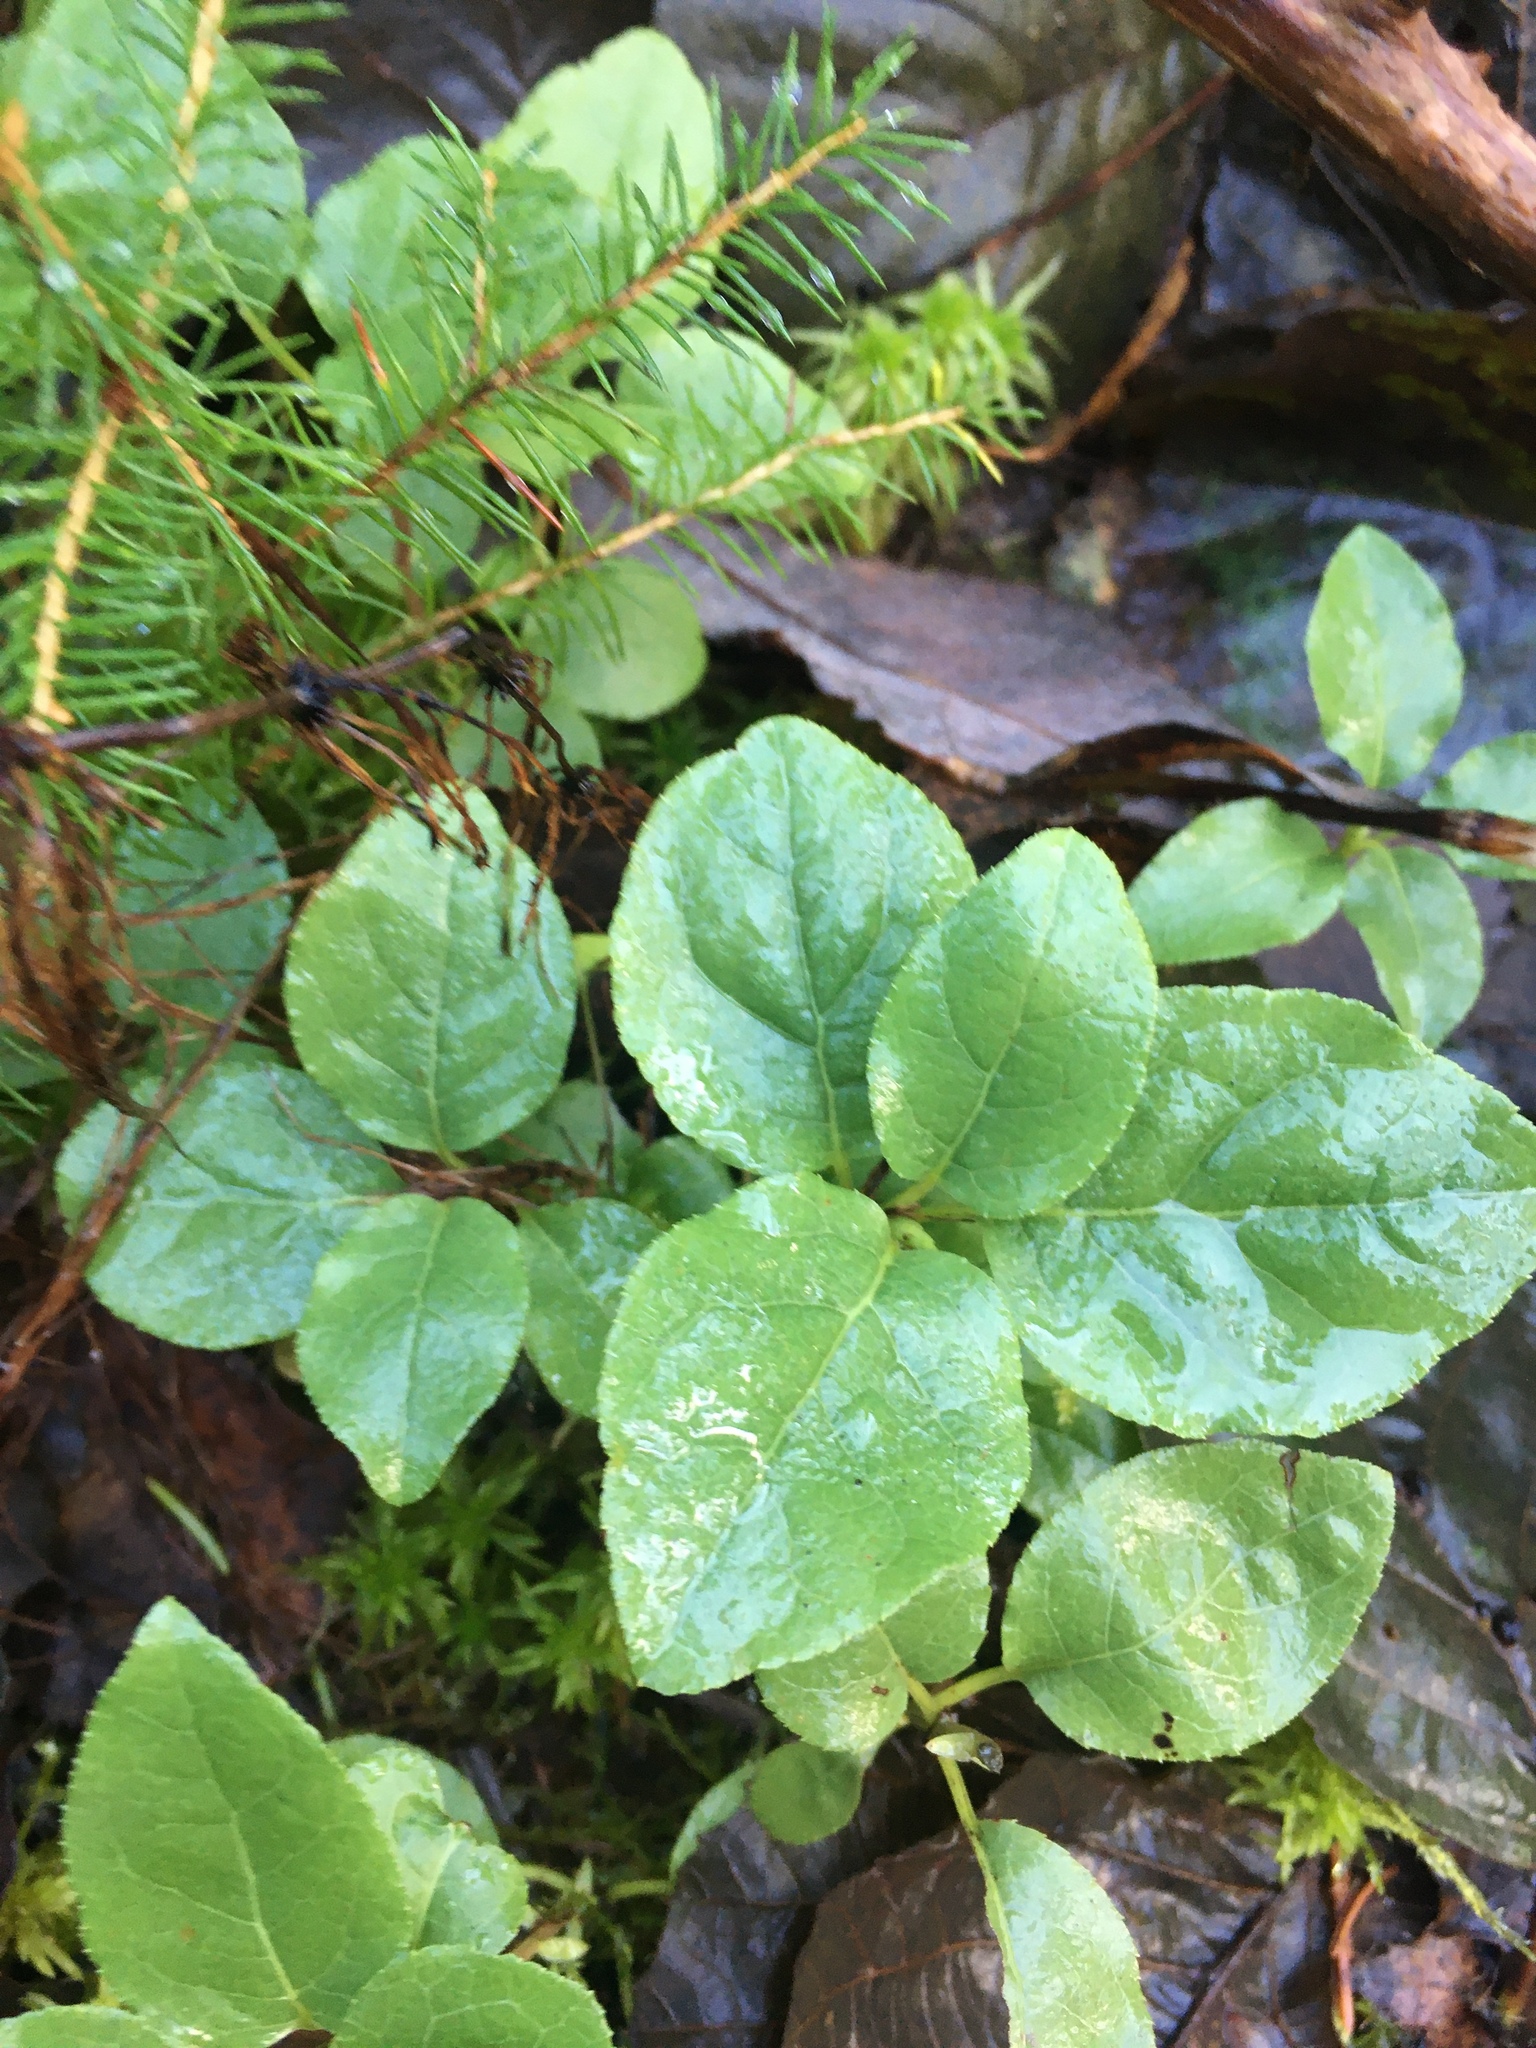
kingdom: Plantae
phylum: Tracheophyta
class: Magnoliopsida
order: Ericales
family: Ericaceae
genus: Orthilia
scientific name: Orthilia secunda
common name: One-sided orthilia
